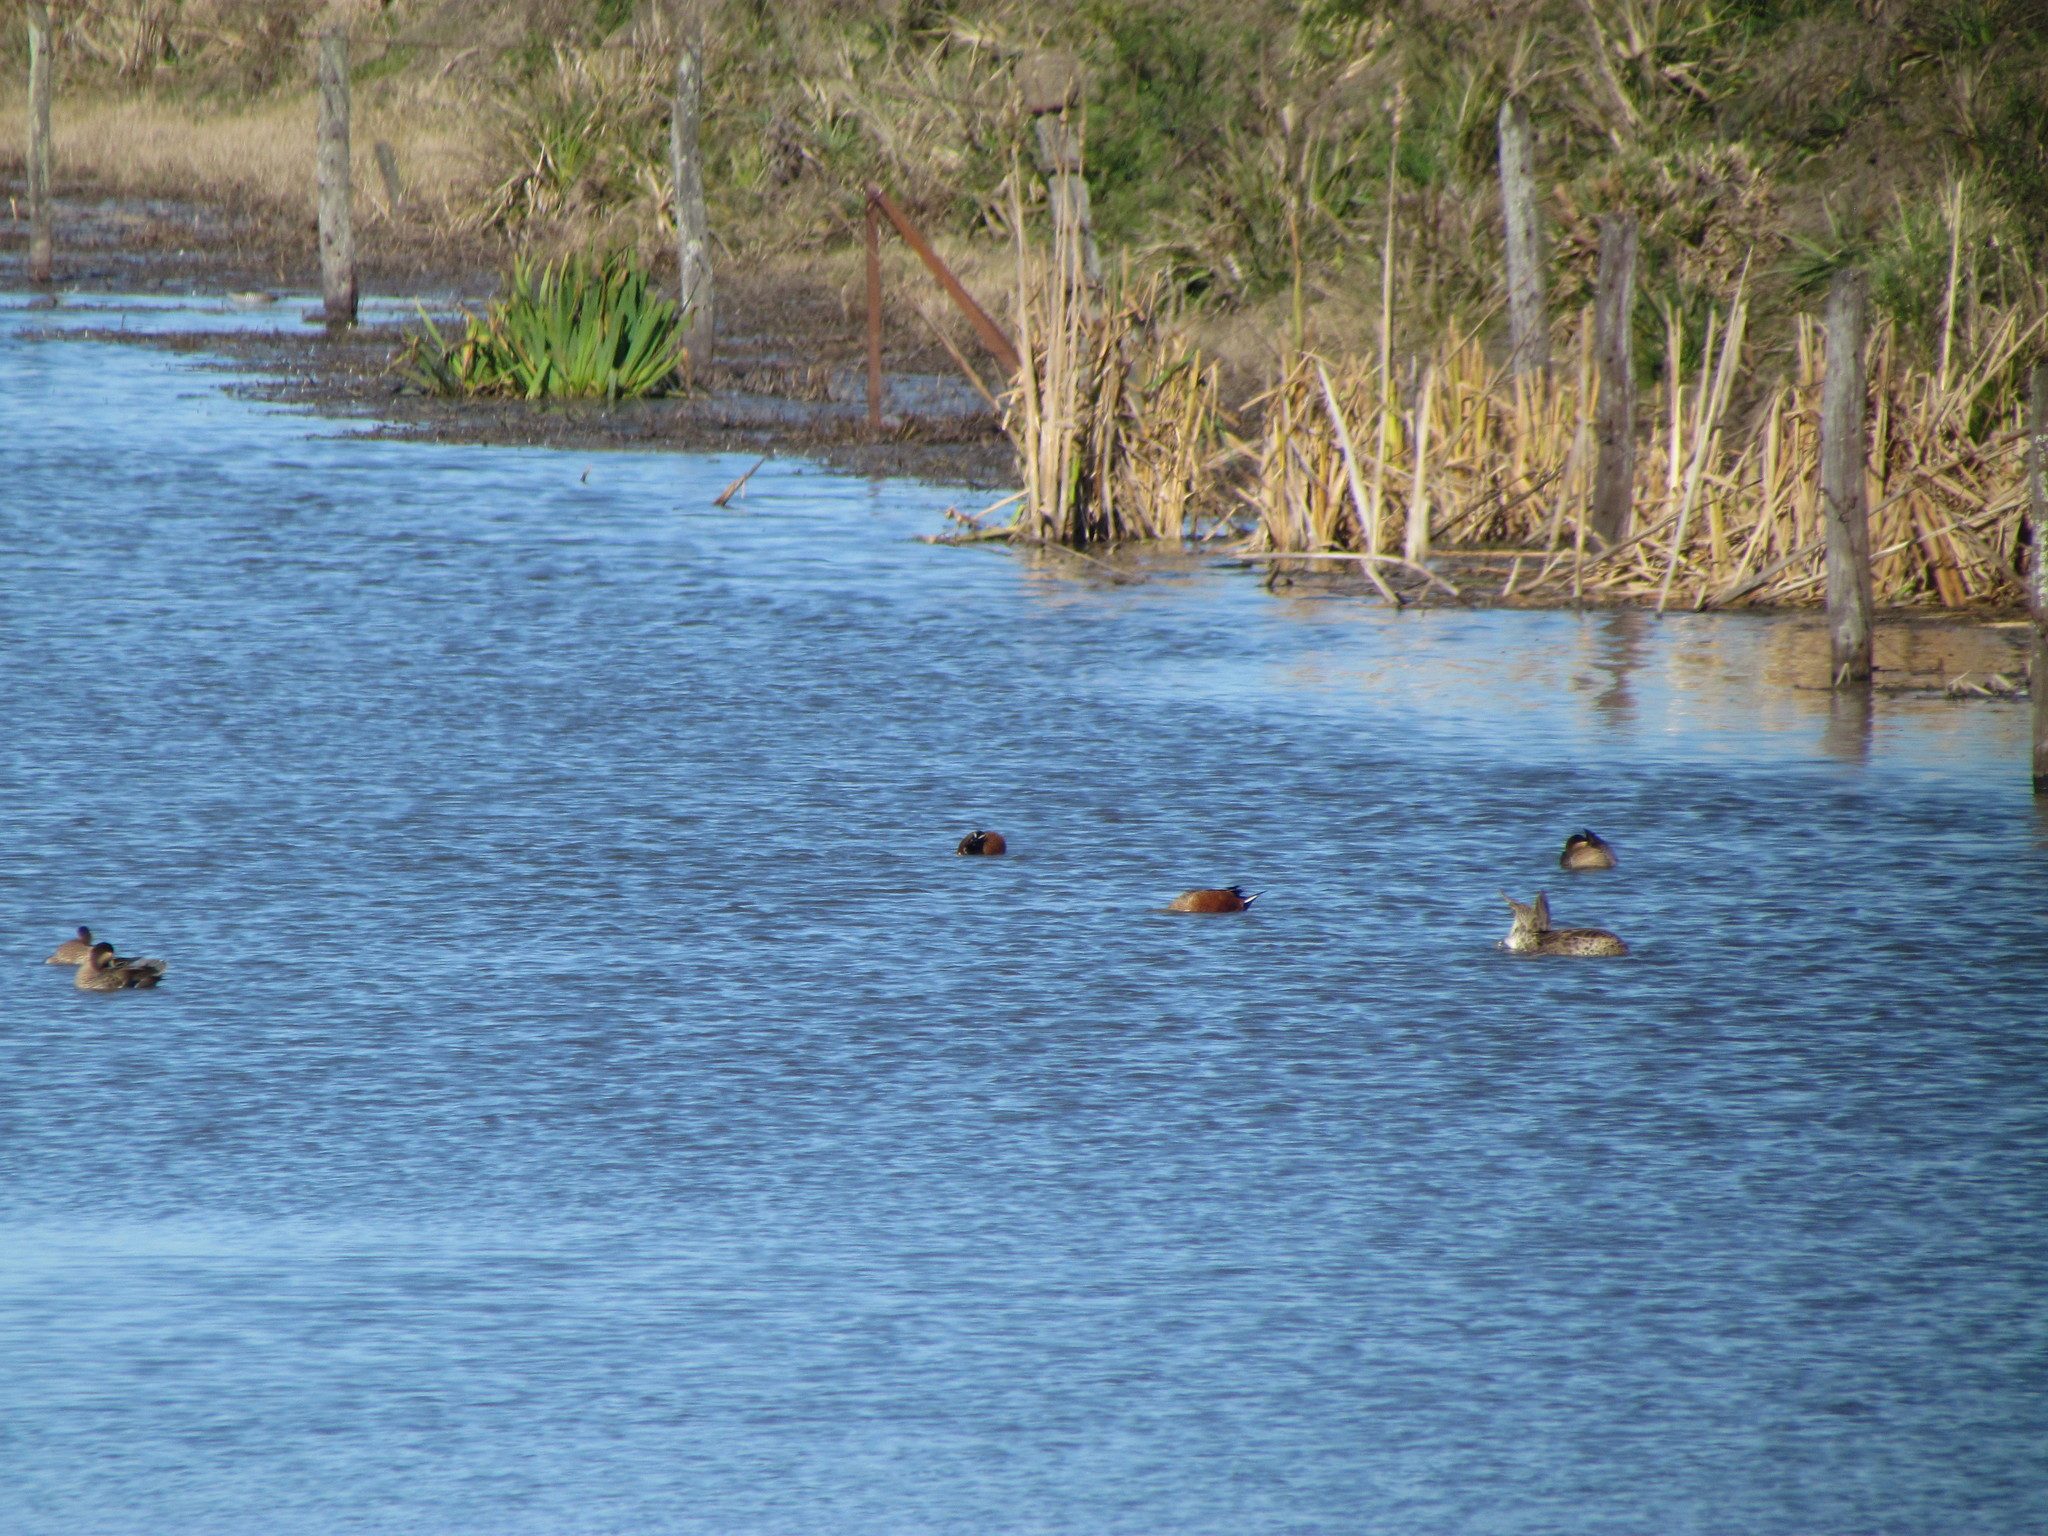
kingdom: Animalia
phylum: Chordata
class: Aves
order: Anseriformes
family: Anatidae
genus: Spatula
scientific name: Spatula platalea
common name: Red shoveler
